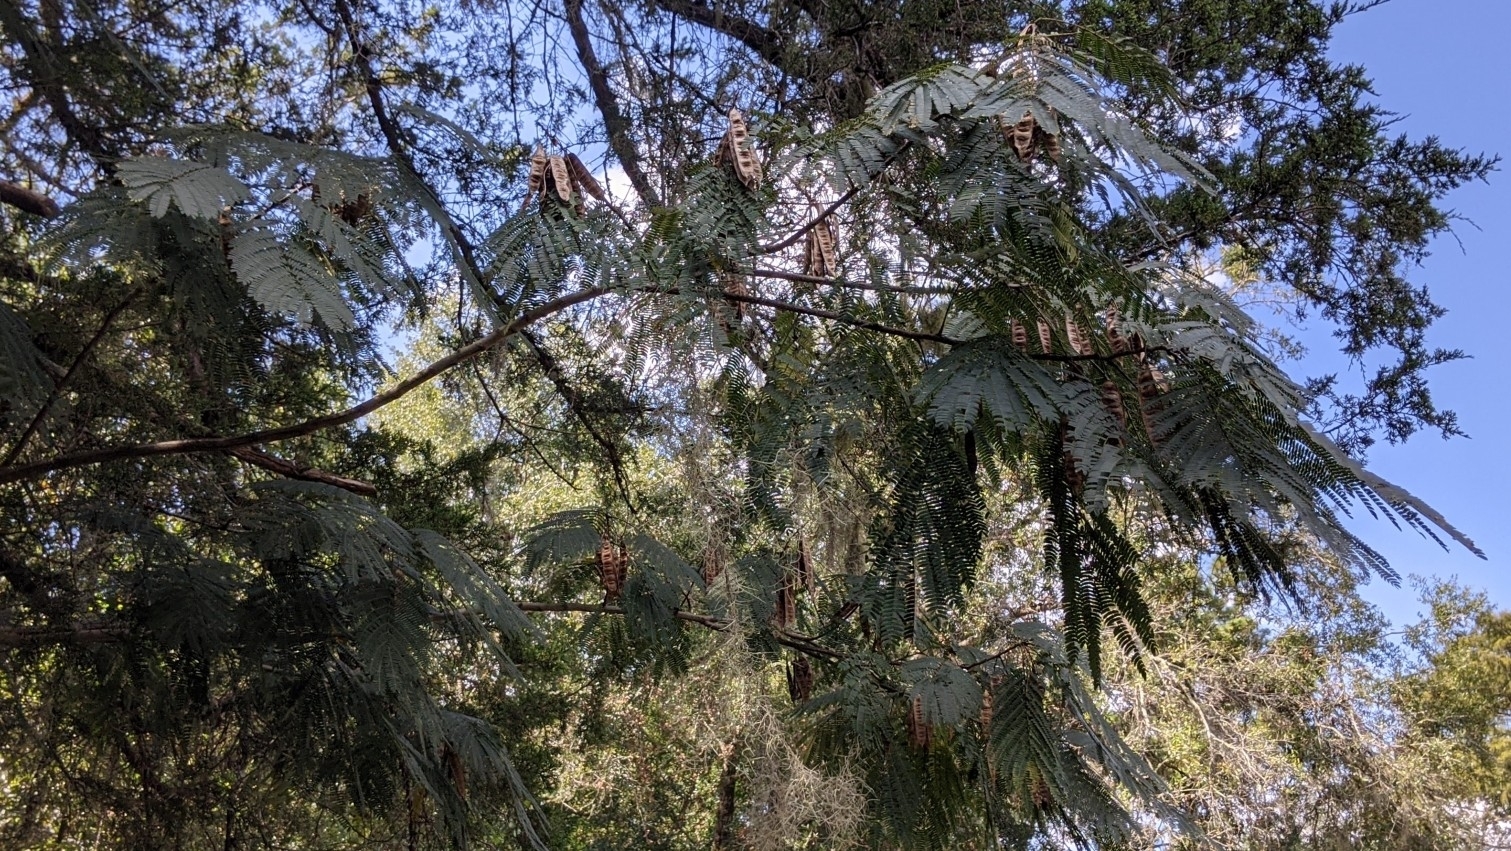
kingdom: Plantae
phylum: Tracheophyta
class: Magnoliopsida
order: Fabales
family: Fabaceae
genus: Albizia
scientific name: Albizia julibrissin
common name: Silktree
